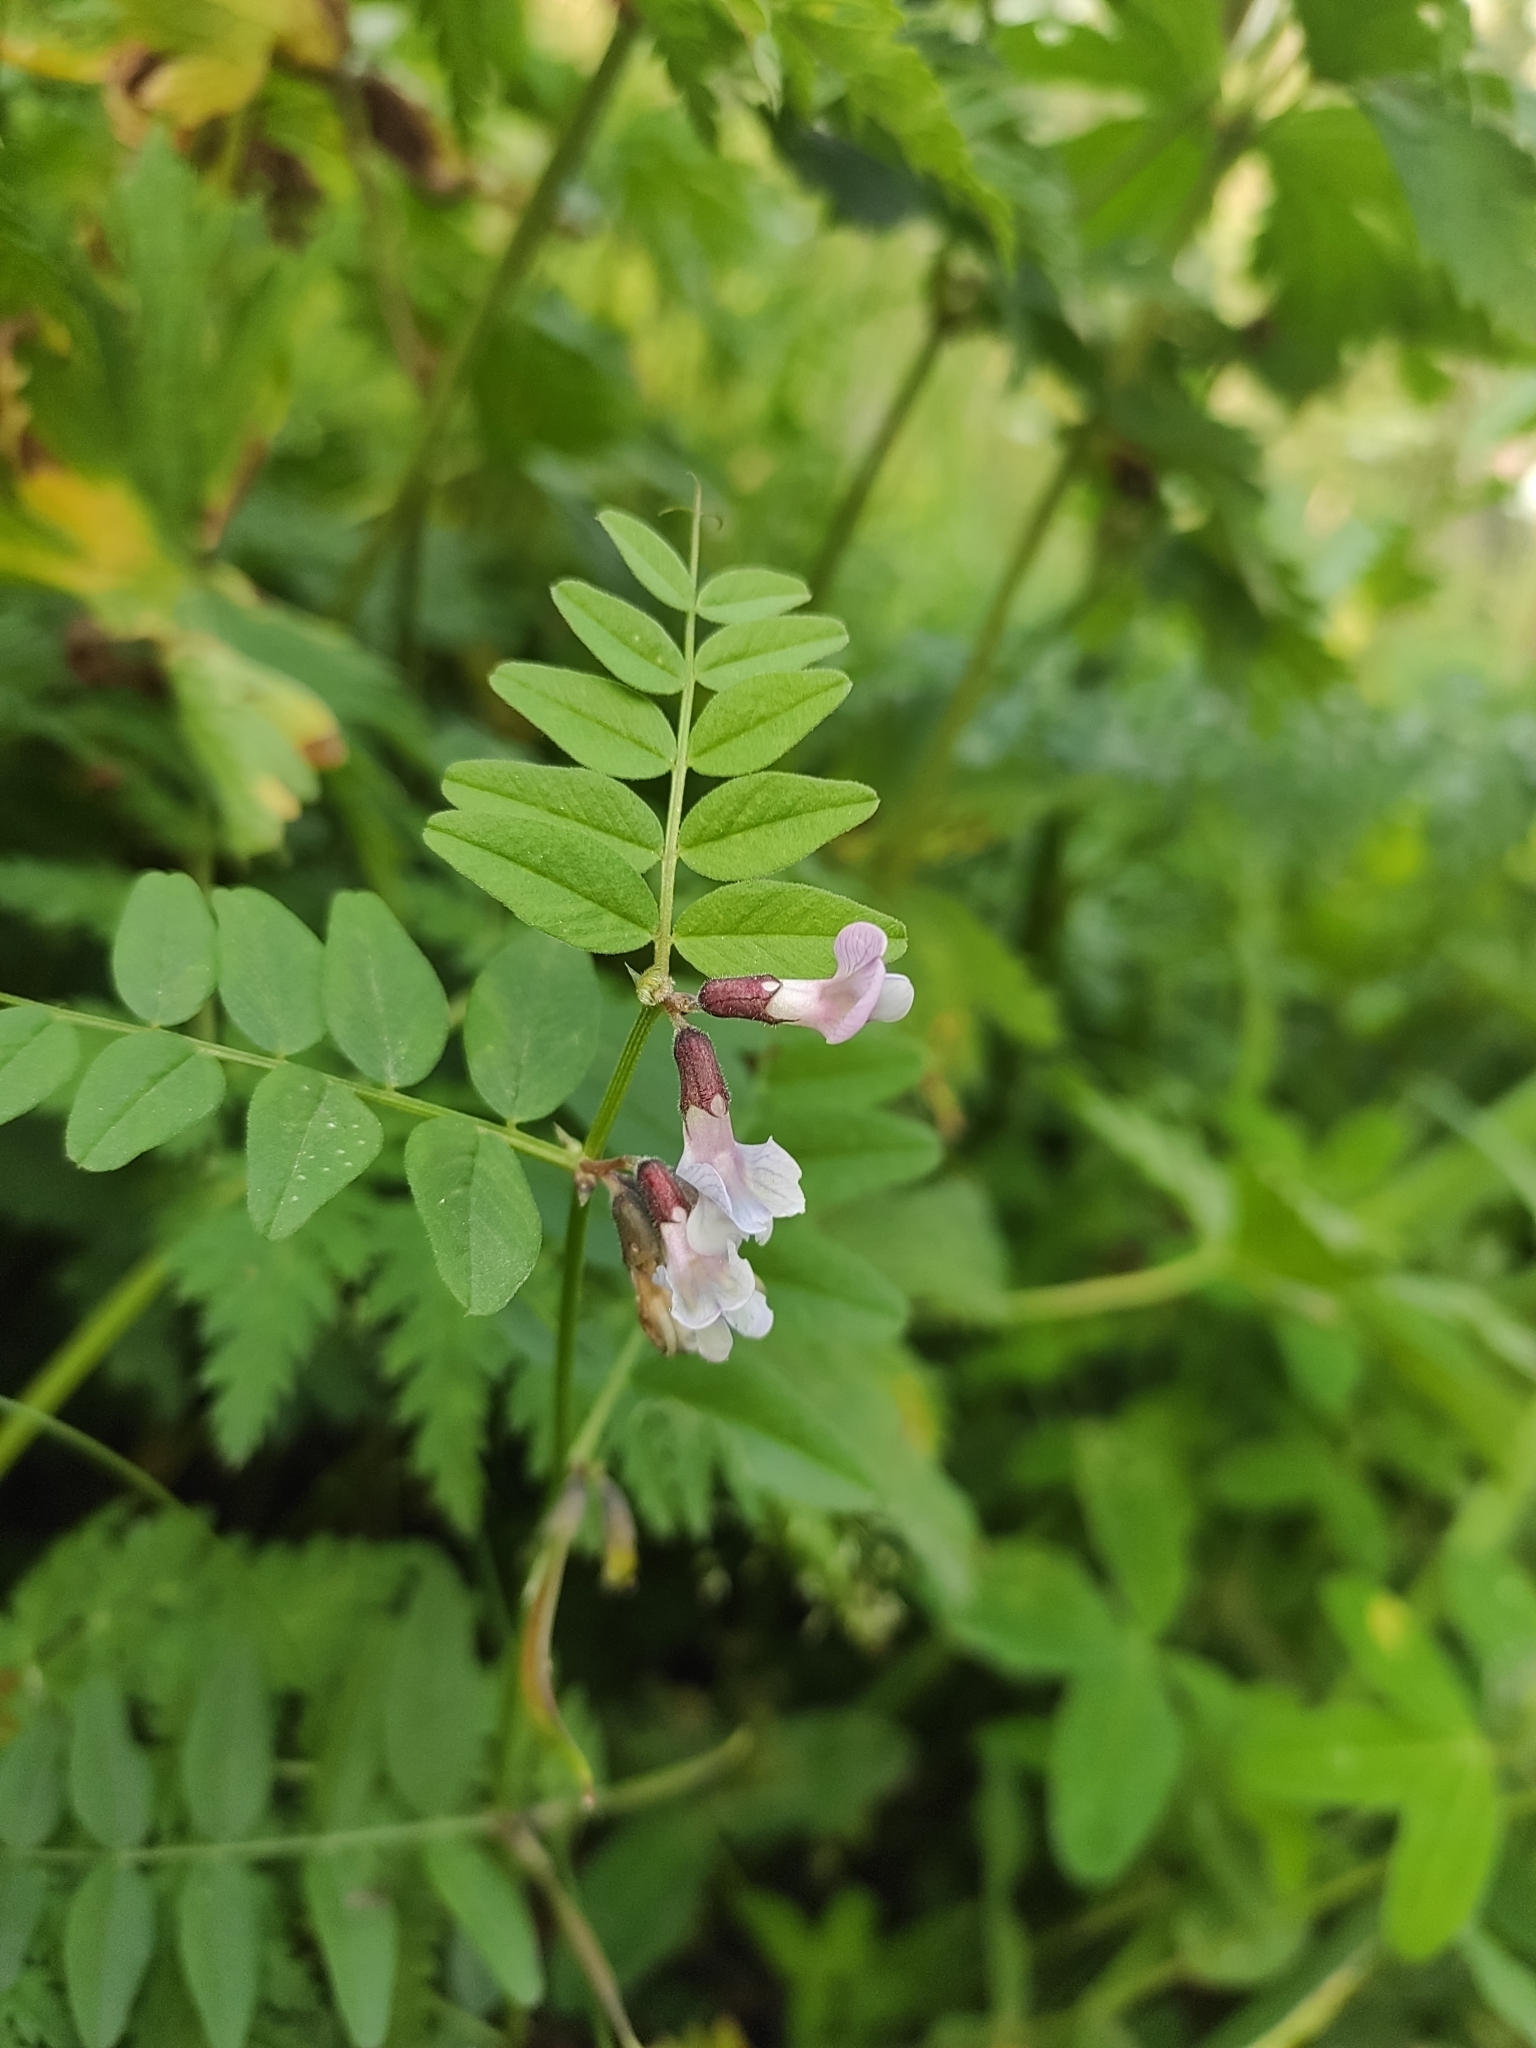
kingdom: Plantae
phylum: Tracheophyta
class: Magnoliopsida
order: Fabales
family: Fabaceae
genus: Vicia
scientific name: Vicia sepium
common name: Bush vetch
